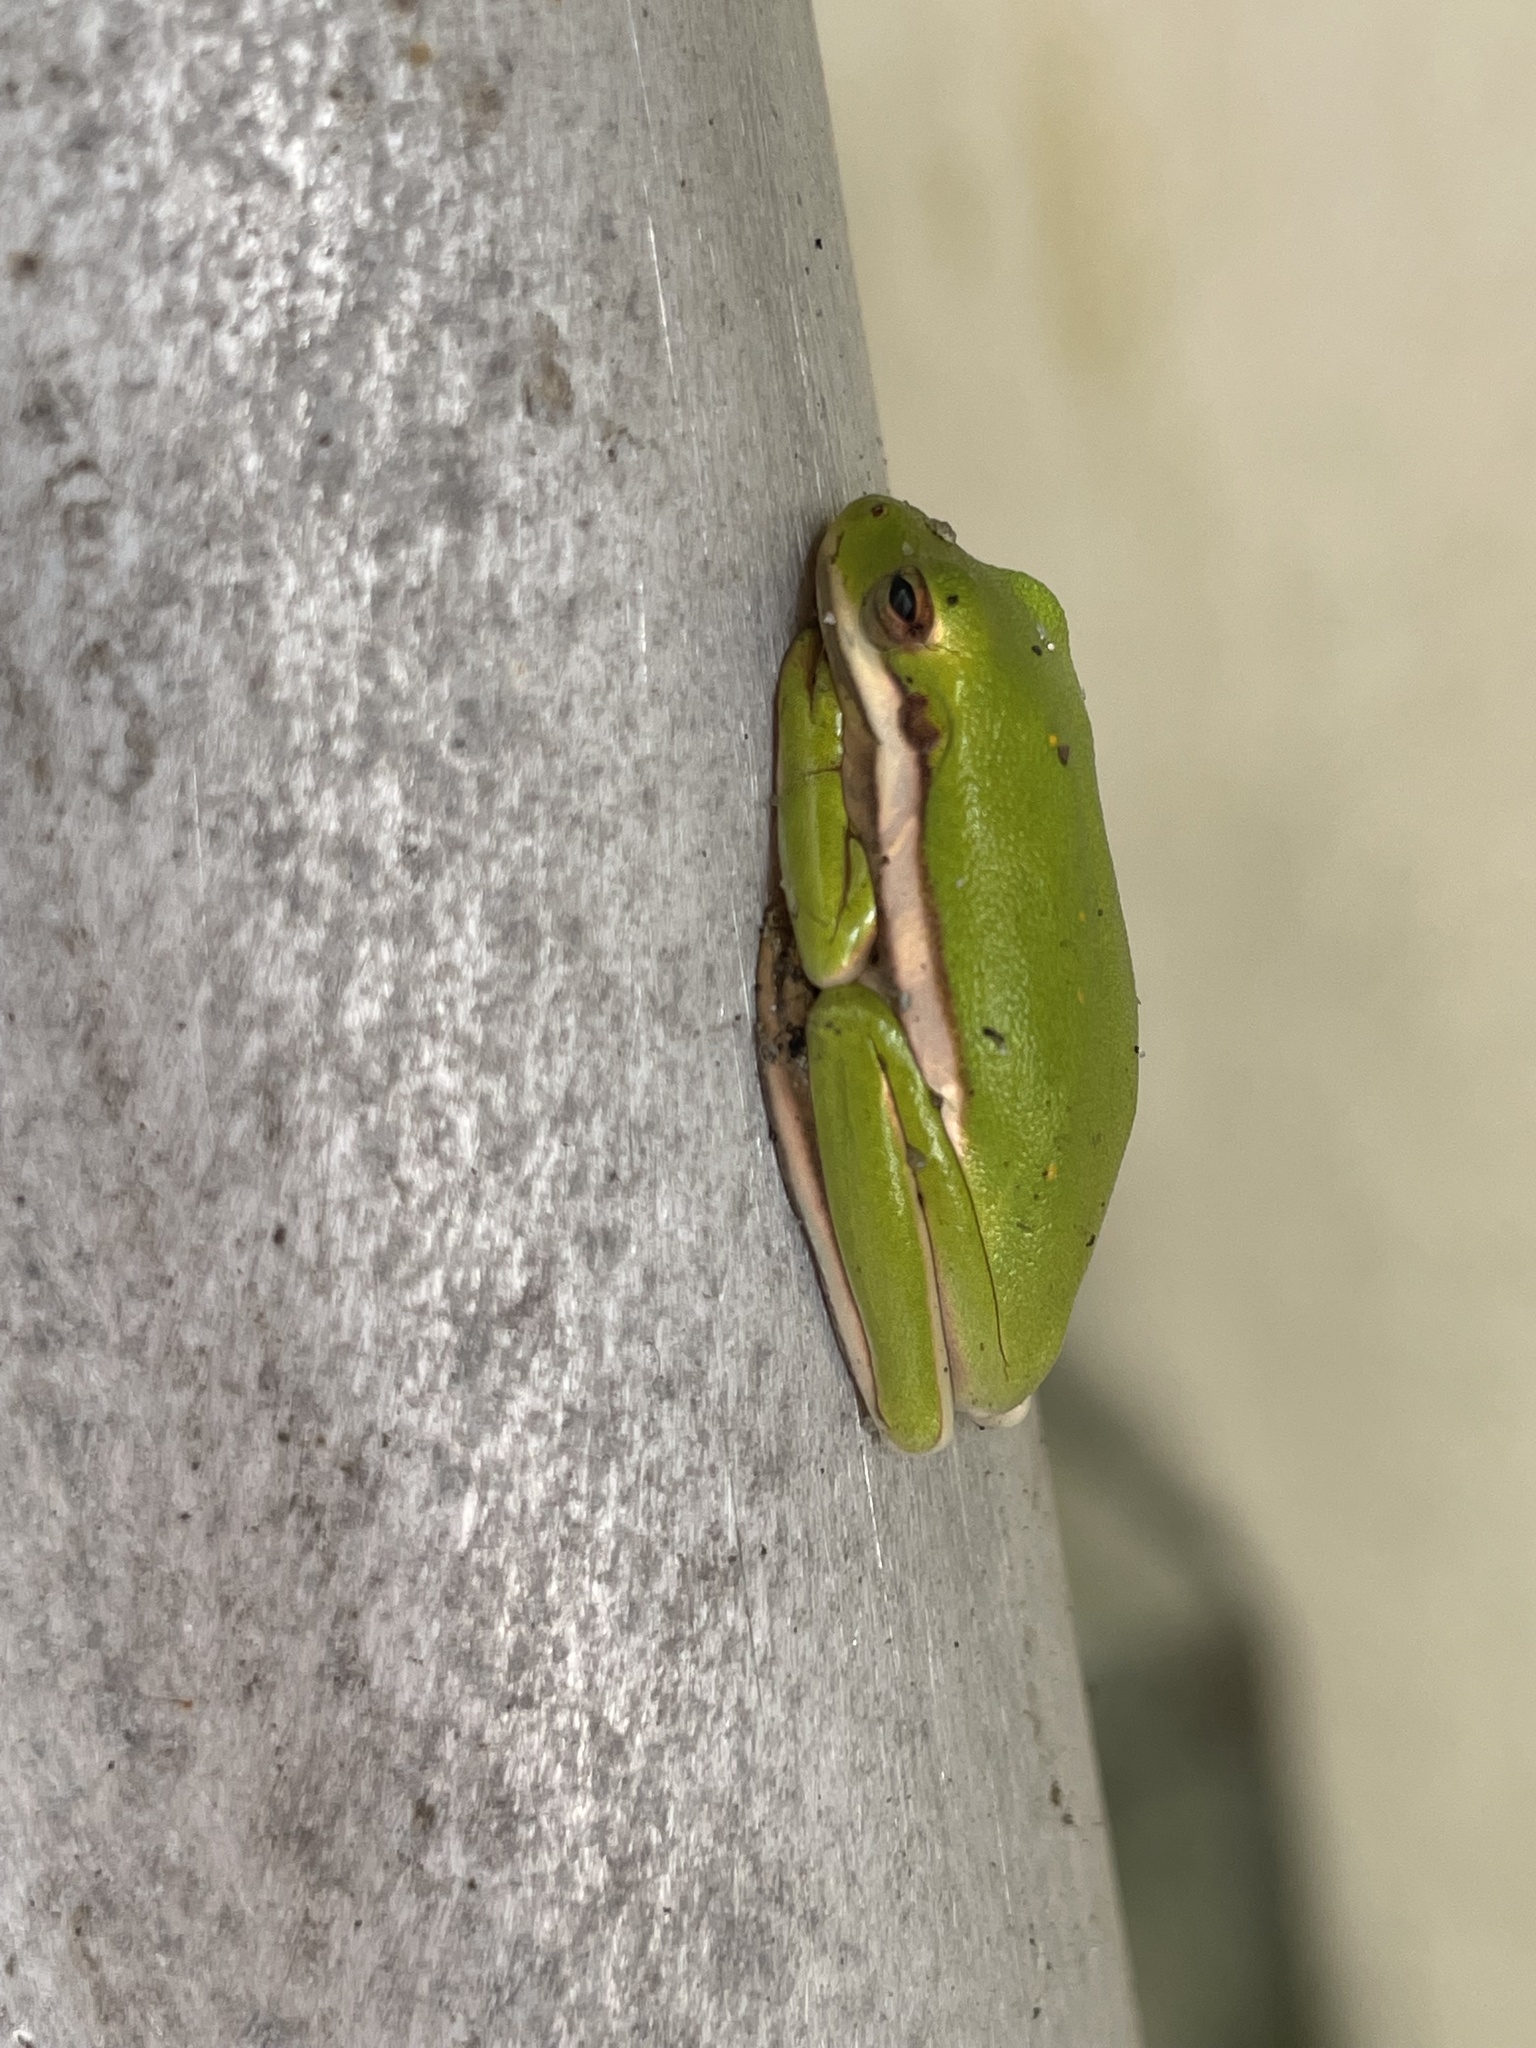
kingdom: Animalia
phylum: Chordata
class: Amphibia
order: Anura
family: Hylidae
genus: Dryophytes
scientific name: Dryophytes cinereus
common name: Green treefrog
